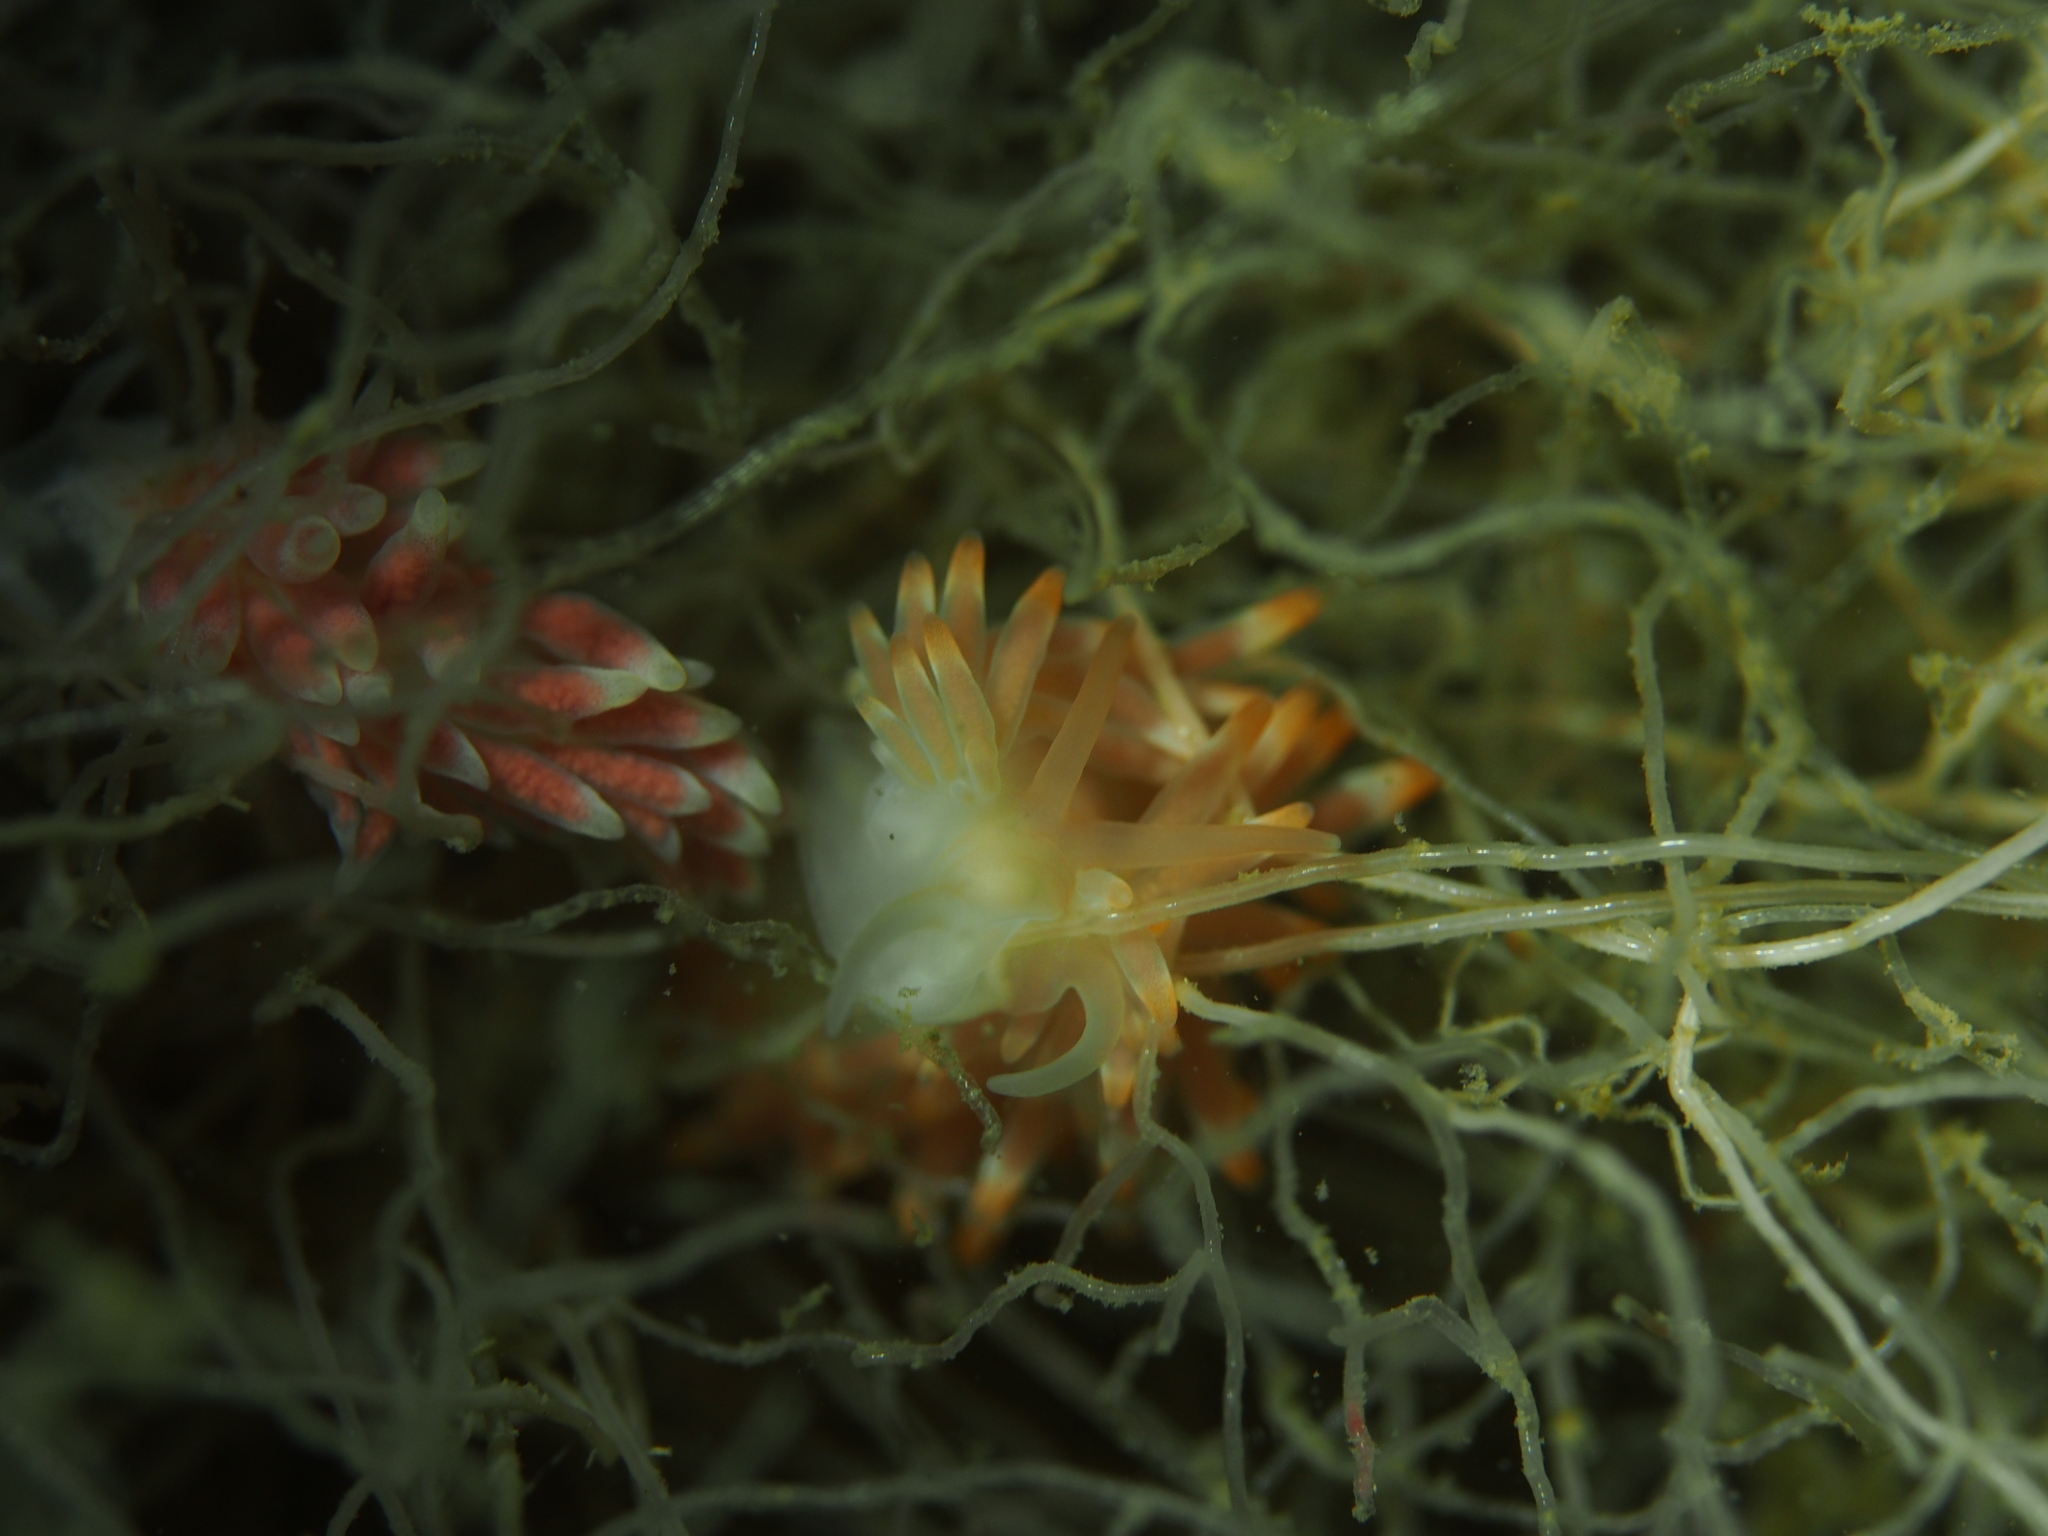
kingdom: Animalia
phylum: Mollusca
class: Gastropoda
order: Nudibranchia
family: Trinchesiidae
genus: Catriona
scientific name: Catriona aurantia
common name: Corange-tip cuthona
